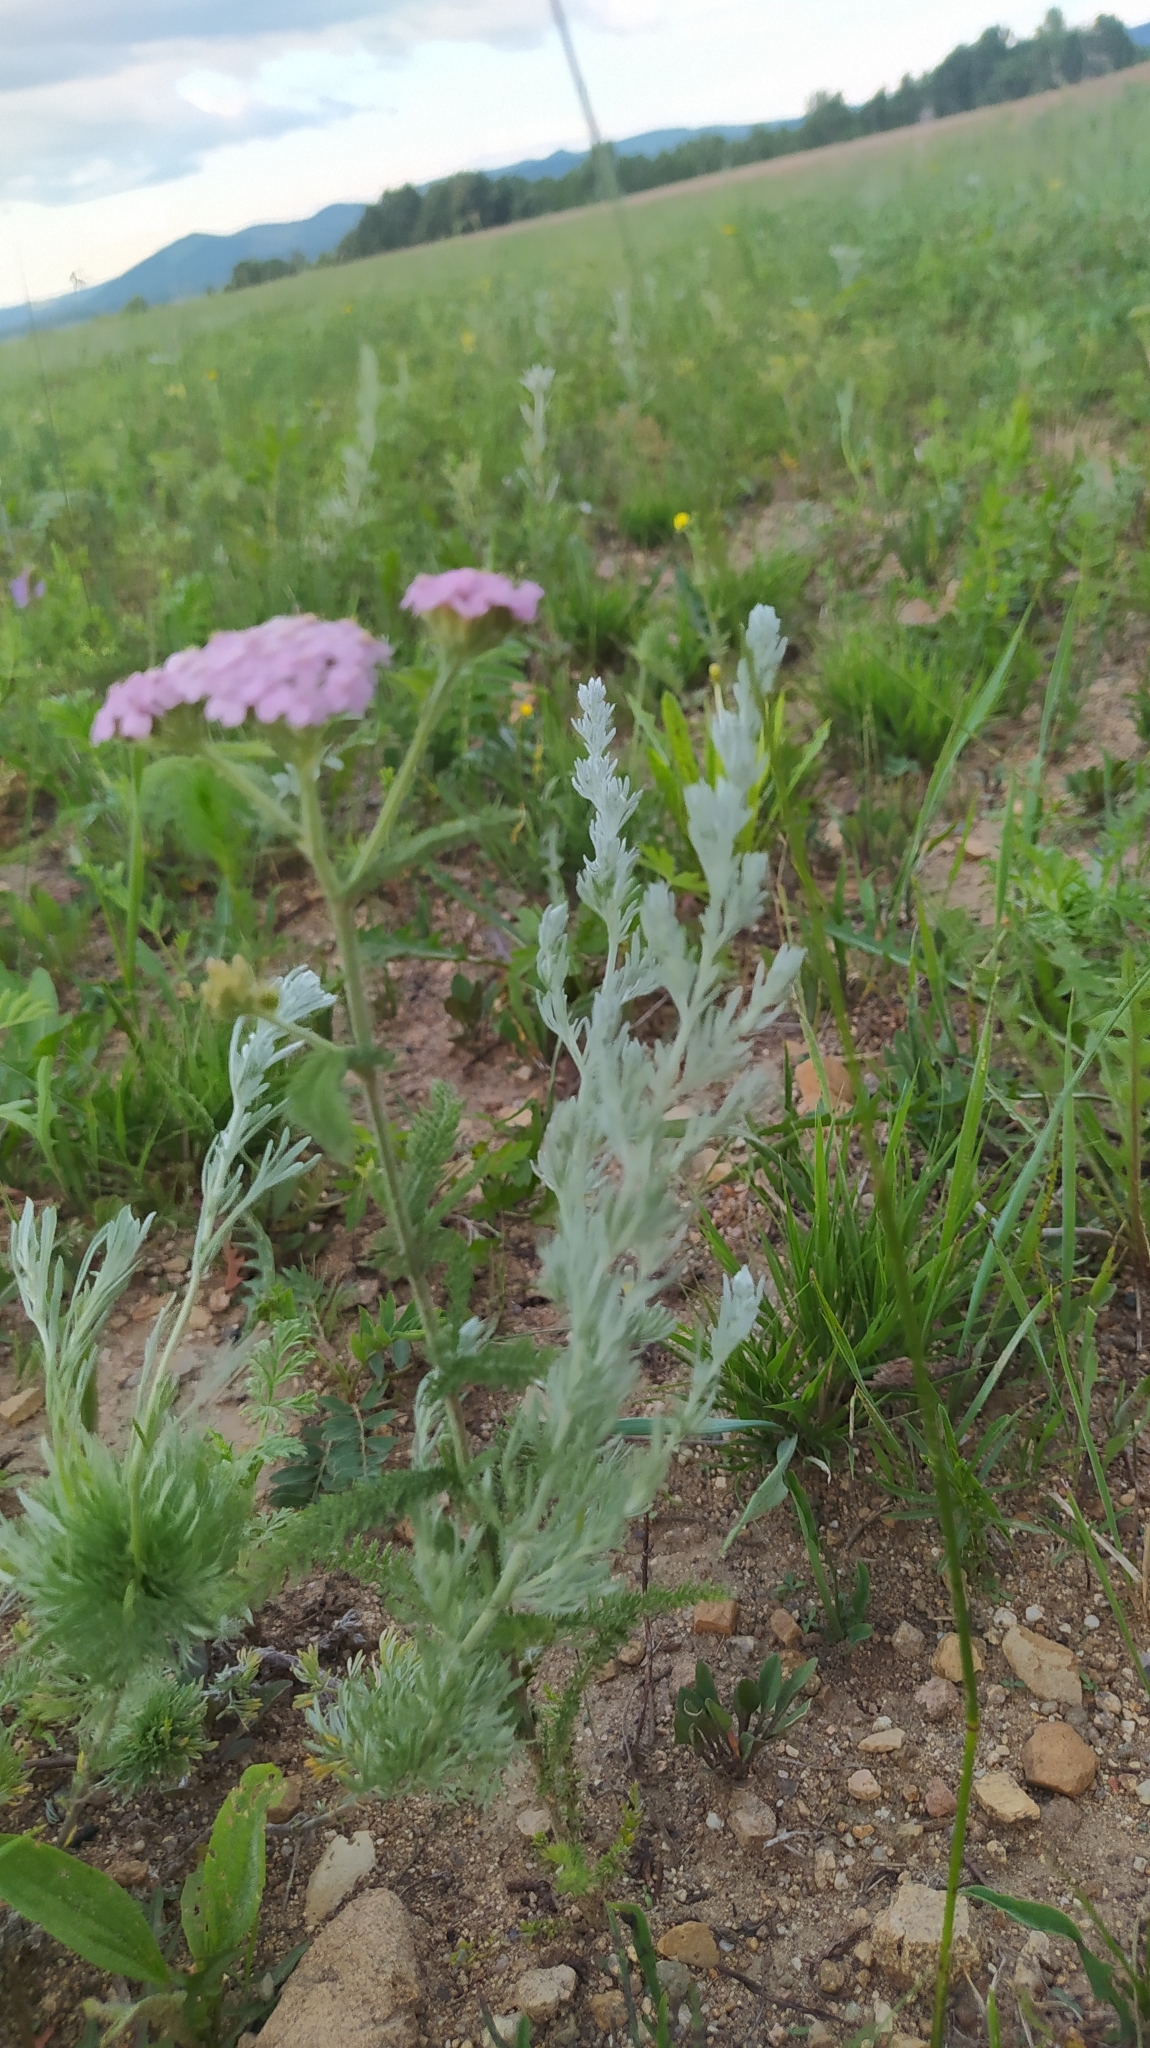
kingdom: Plantae
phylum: Tracheophyta
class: Magnoliopsida
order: Asterales
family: Asteraceae
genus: Achillea
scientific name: Achillea asiatica
